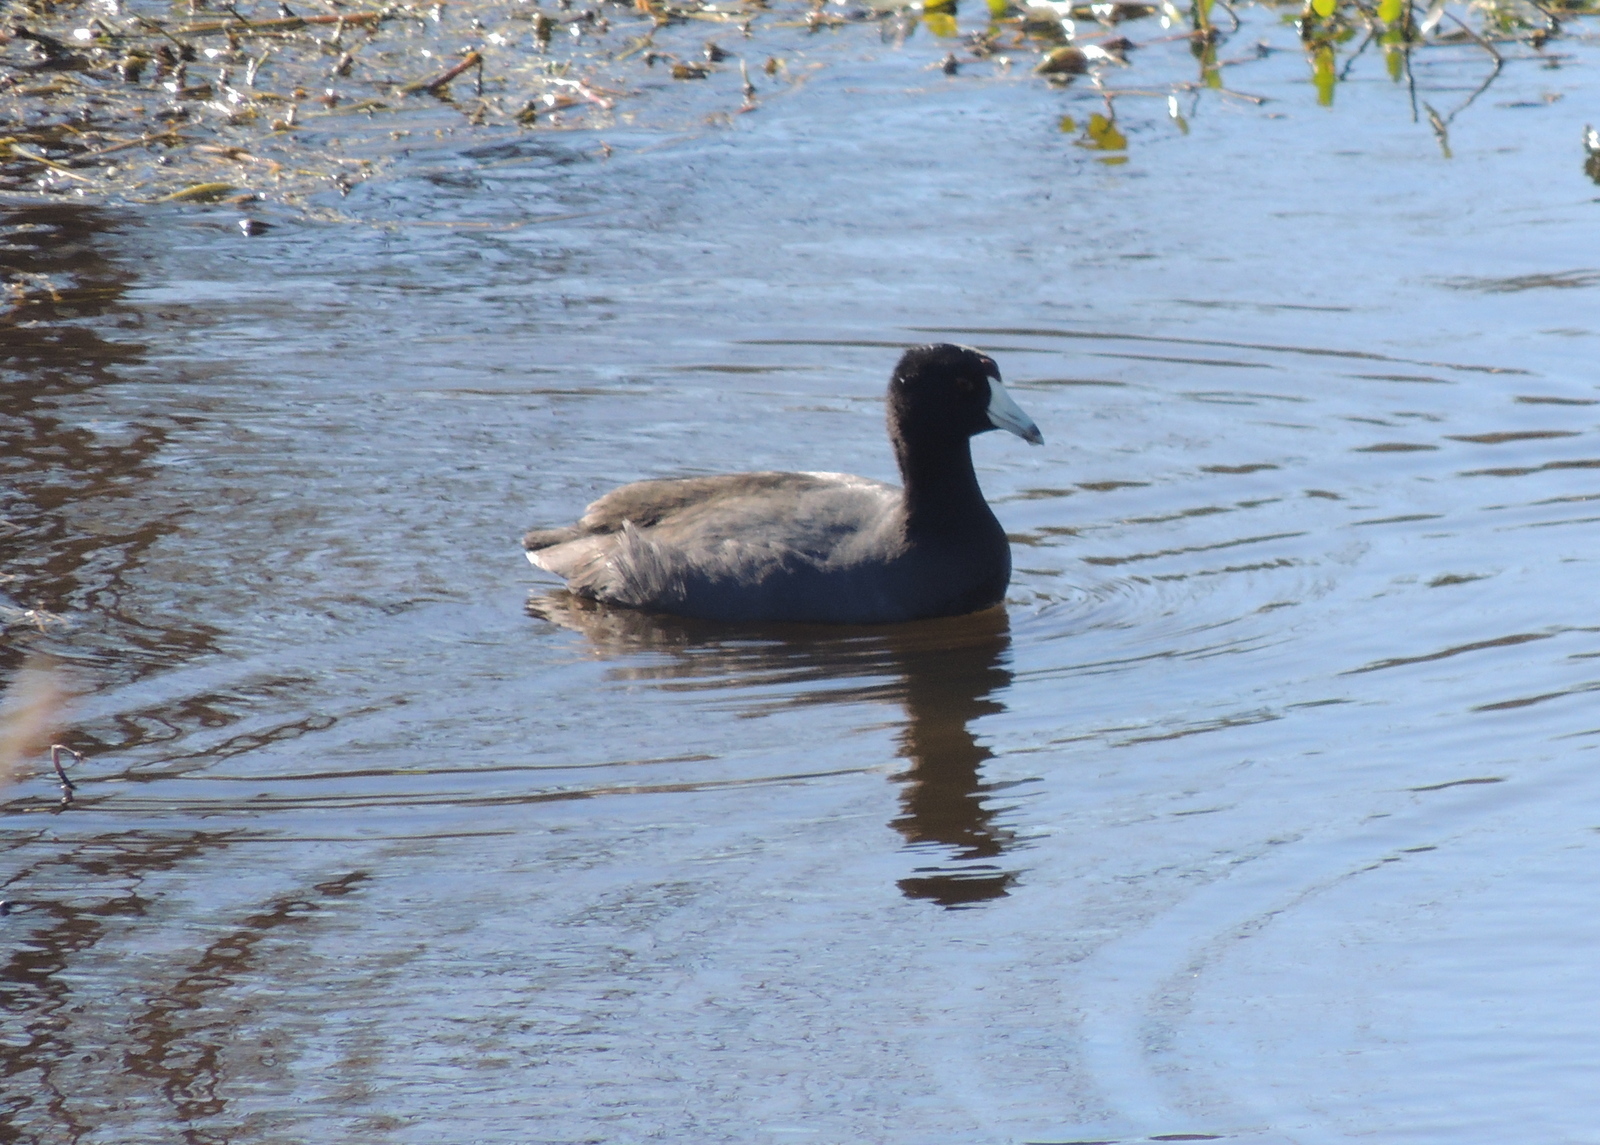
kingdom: Animalia
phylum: Chordata
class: Aves
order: Gruiformes
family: Rallidae
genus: Fulica
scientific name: Fulica americana
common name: American coot
